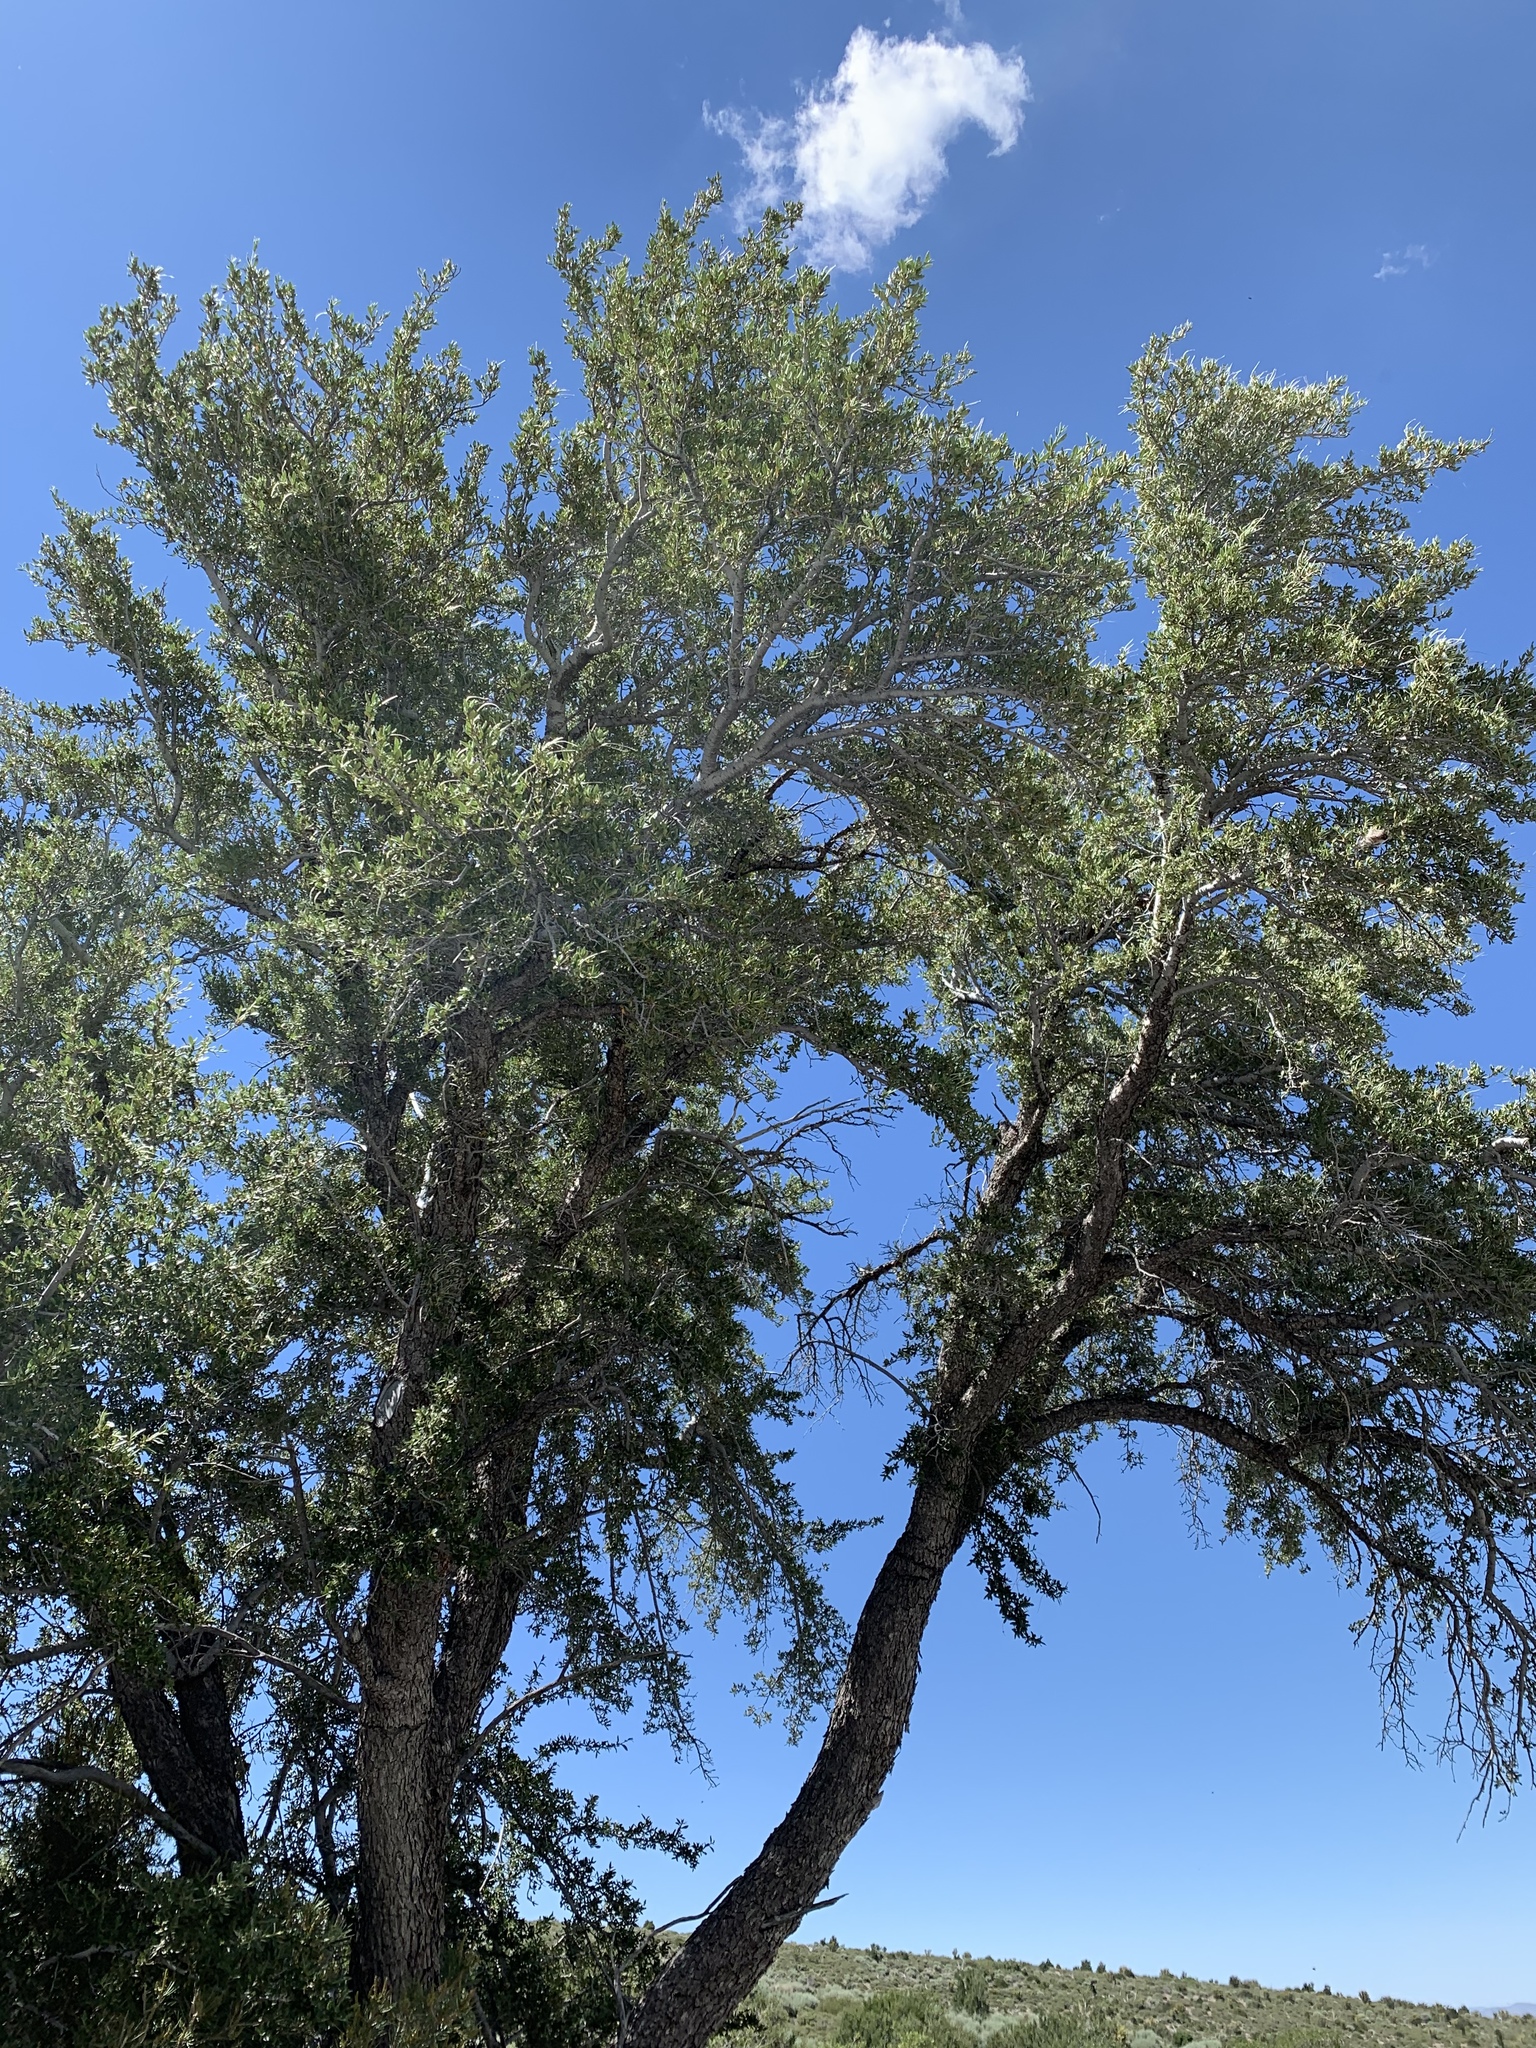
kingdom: Plantae
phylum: Tracheophyta
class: Magnoliopsida
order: Rosales
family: Rosaceae
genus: Cercocarpus
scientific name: Cercocarpus ledifolius
